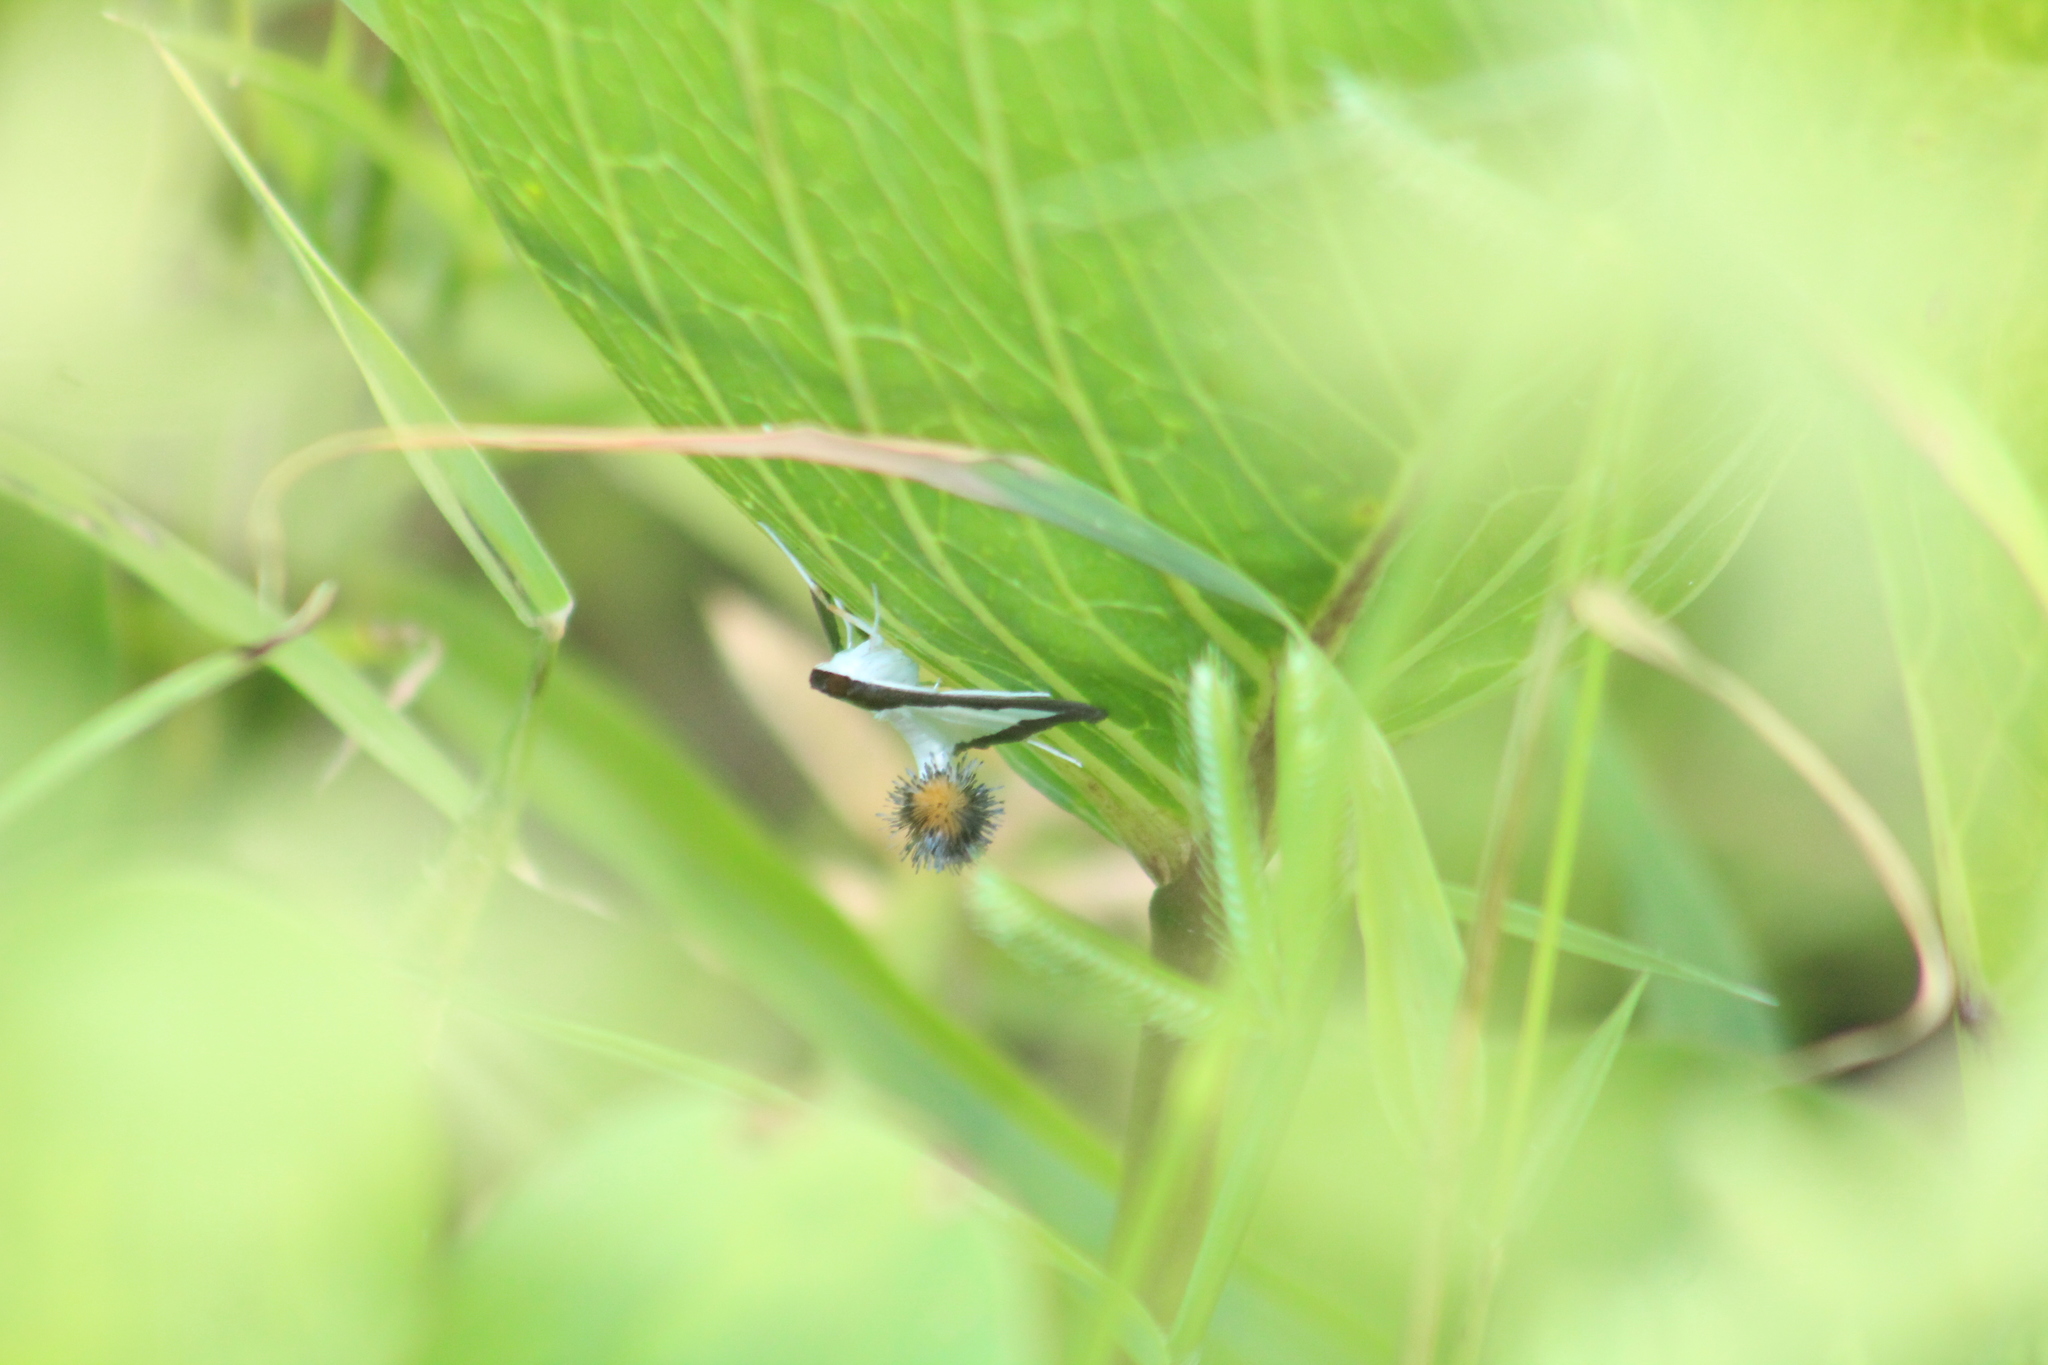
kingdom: Animalia
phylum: Arthropoda
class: Insecta
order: Lepidoptera
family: Crambidae
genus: Diaphania
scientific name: Diaphania hyalinata
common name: Melonworm
